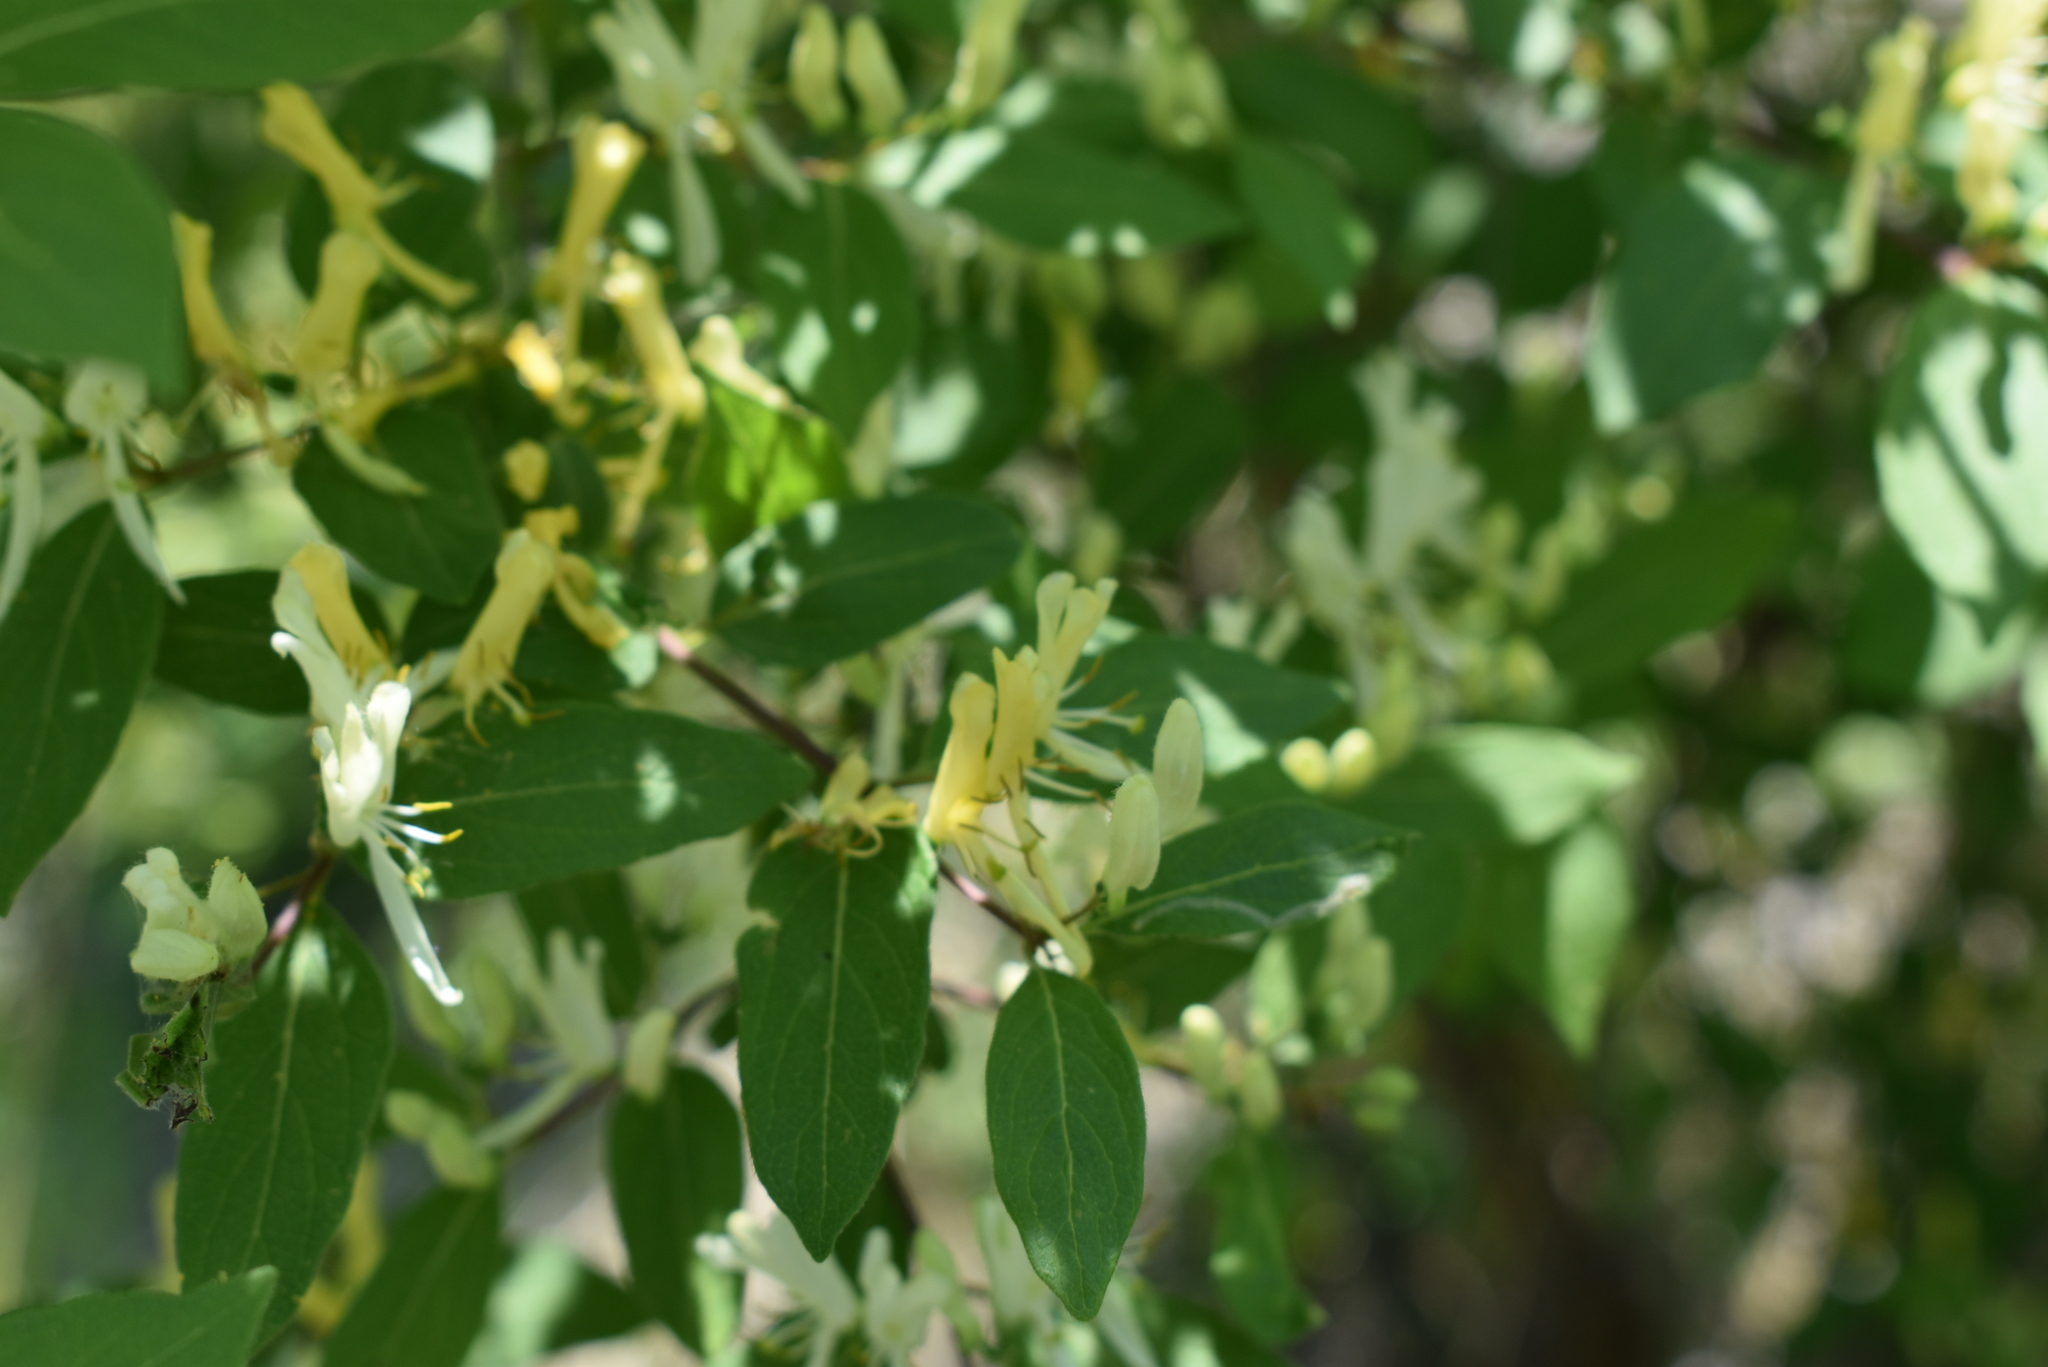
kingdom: Plantae
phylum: Tracheophyta
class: Magnoliopsida
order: Dipsacales
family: Caprifoliaceae
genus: Lonicera
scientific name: Lonicera ruprechtiana
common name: Manchurian honeysuckle
